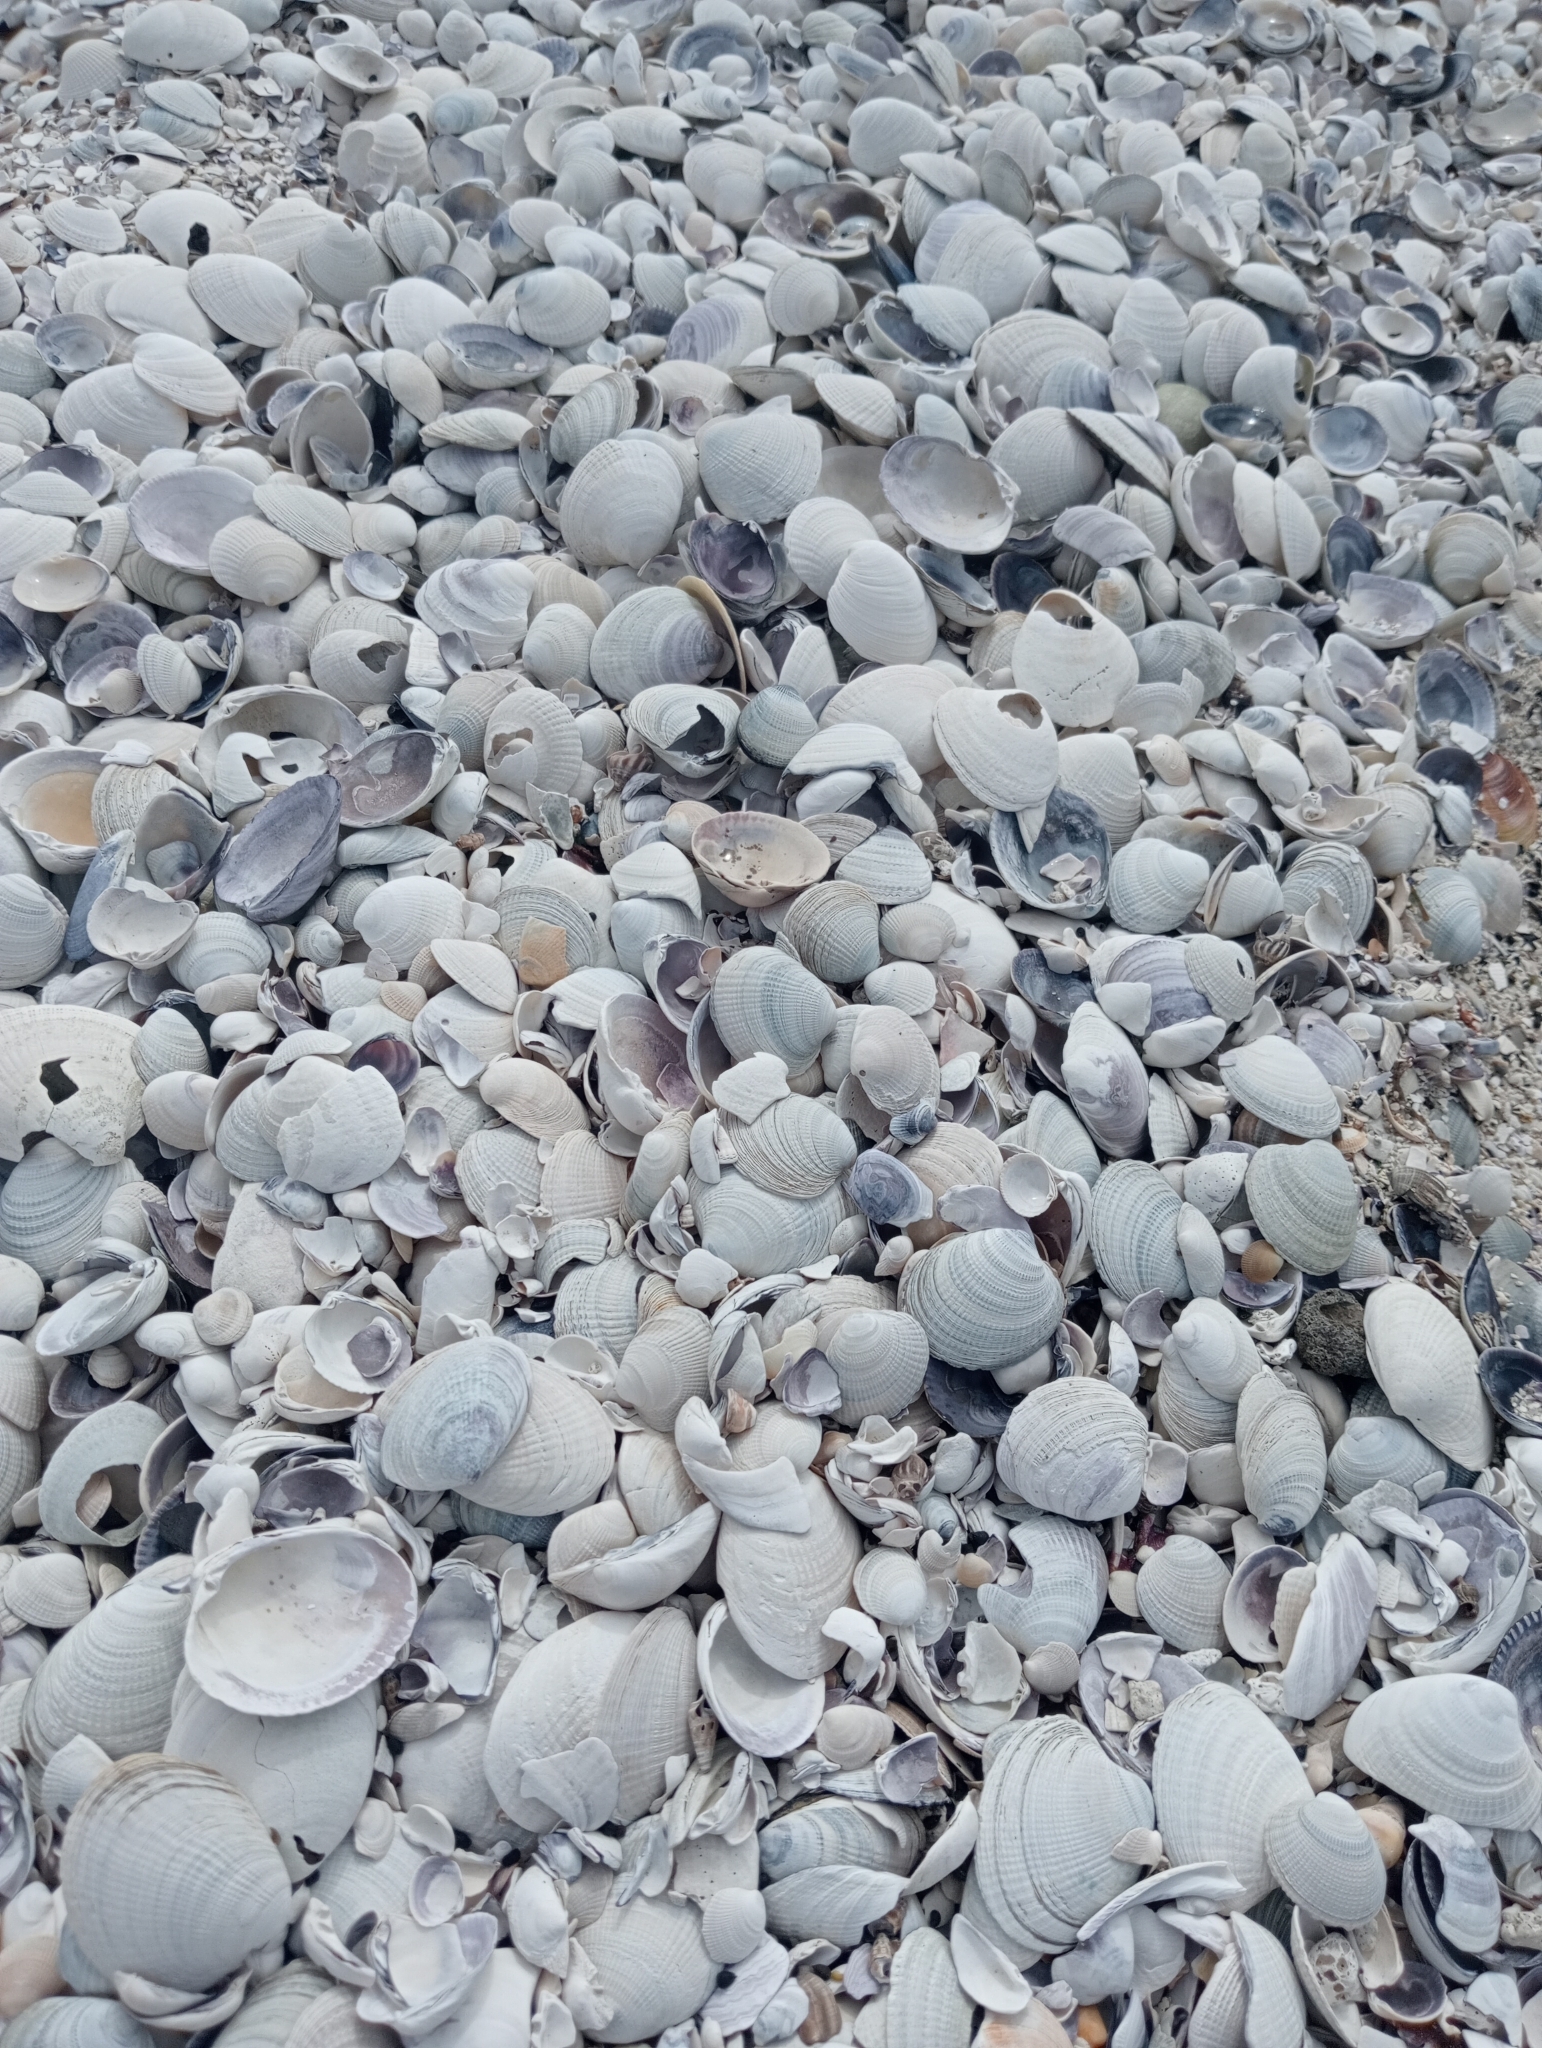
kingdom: Animalia
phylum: Mollusca
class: Bivalvia
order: Venerida
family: Veneridae
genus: Austrovenus
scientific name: Austrovenus stutchburyi
